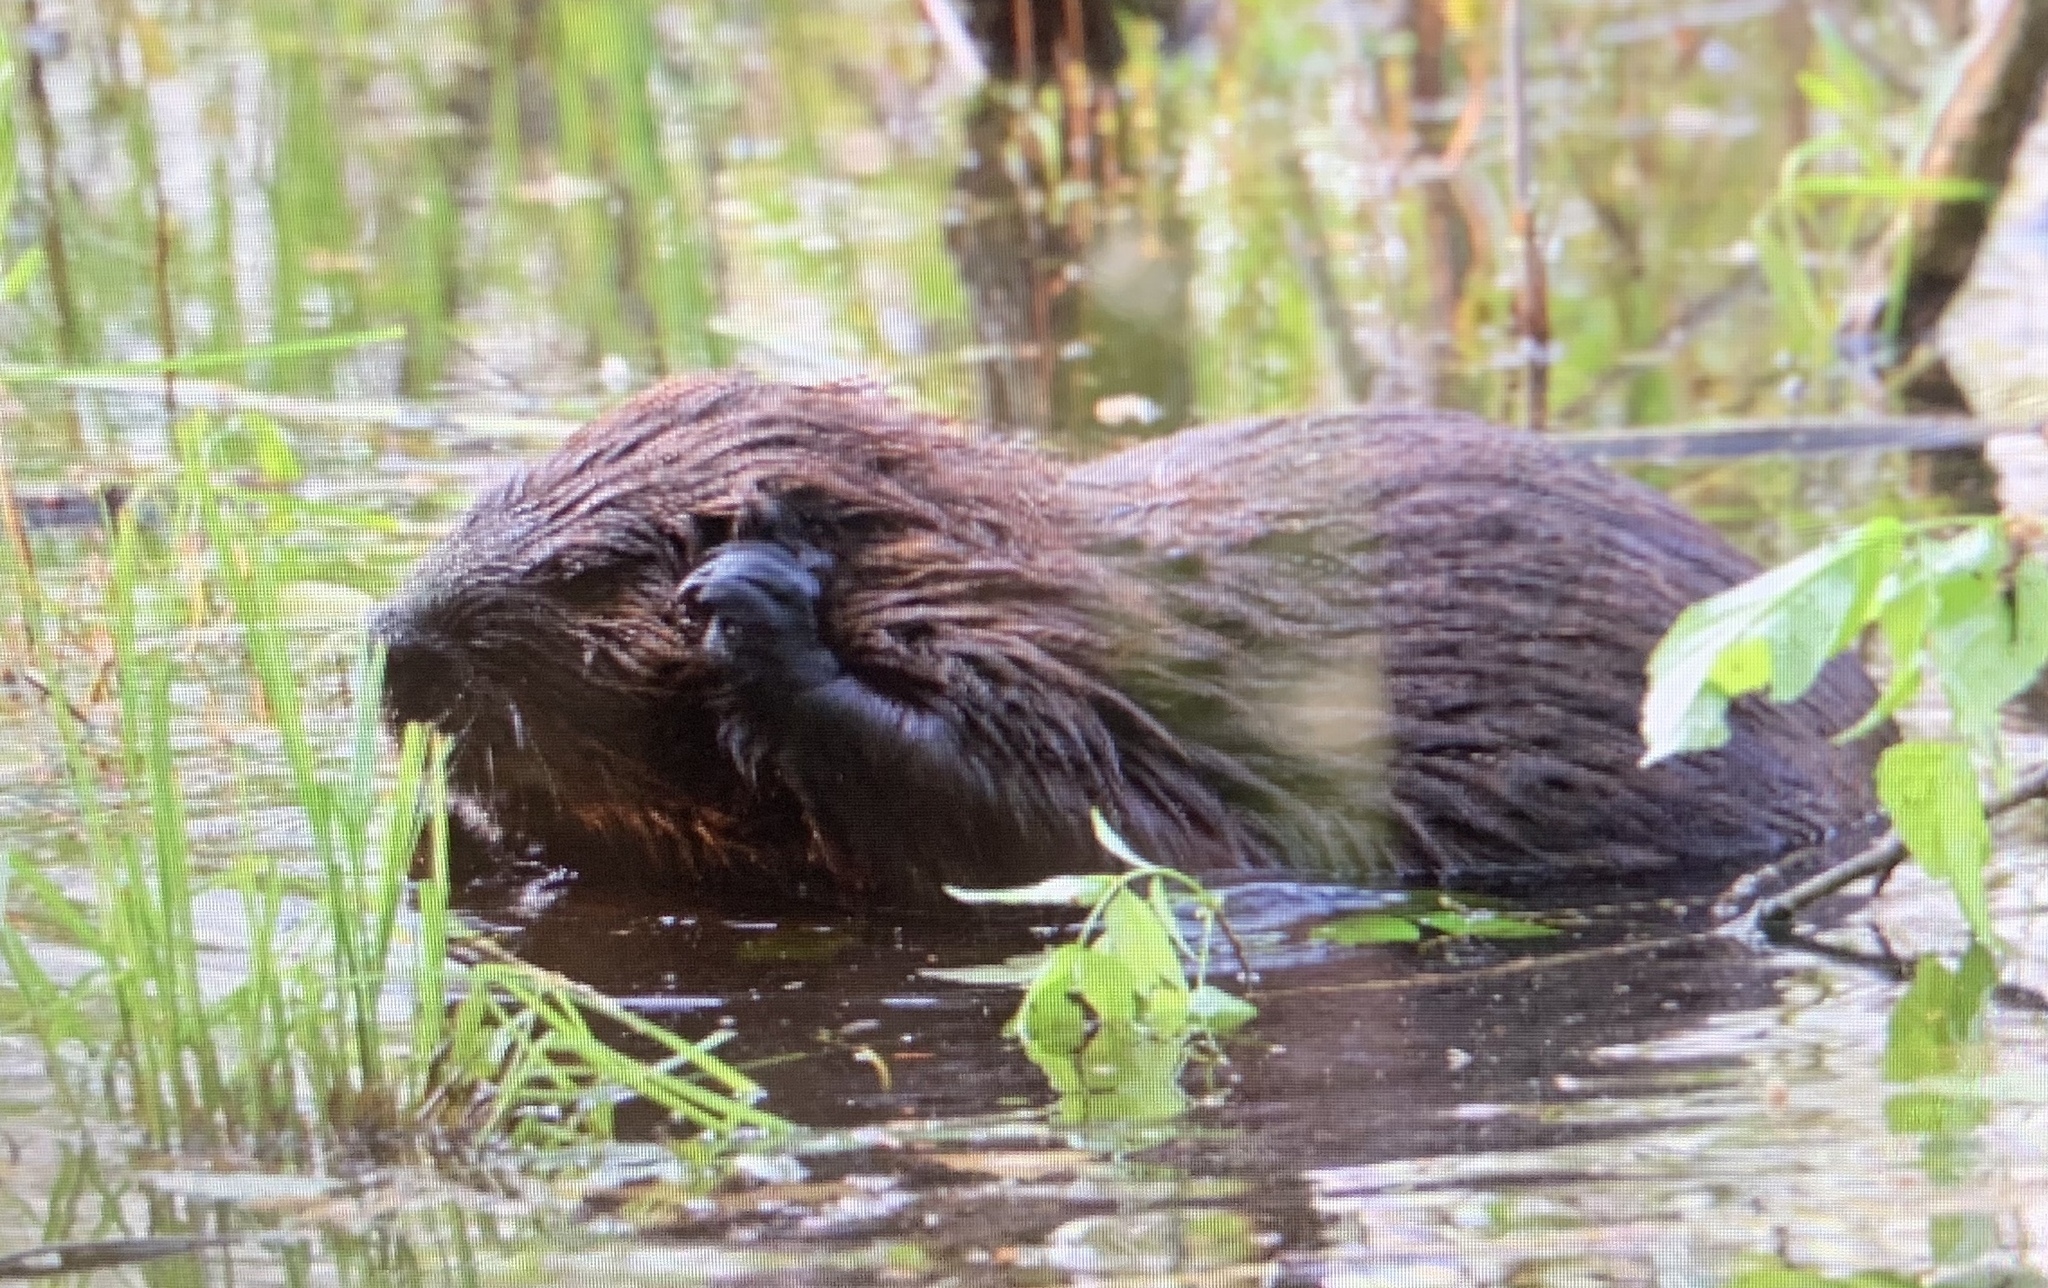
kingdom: Animalia
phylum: Chordata
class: Mammalia
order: Rodentia
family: Castoridae
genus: Castor
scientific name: Castor canadensis
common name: American beaver
